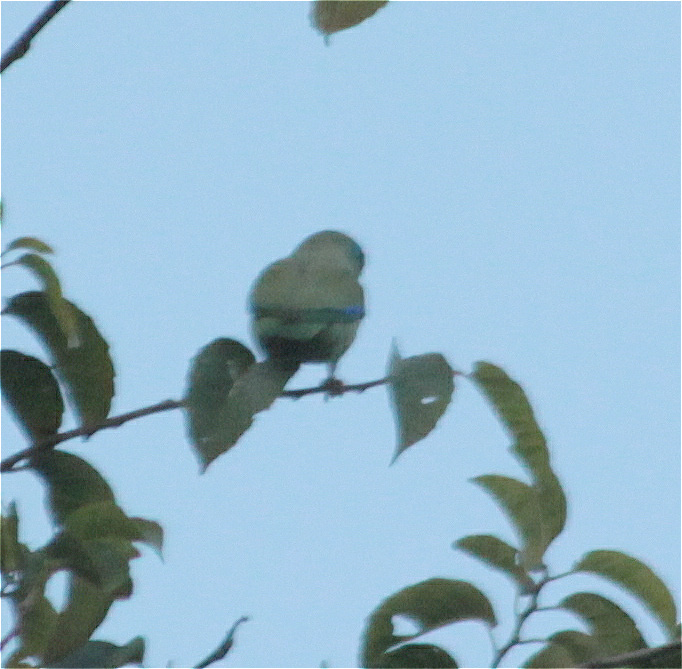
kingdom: Animalia
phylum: Chordata
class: Aves
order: Psittaciformes
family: Psittacidae
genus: Forpus
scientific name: Forpus conspicillatus
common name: Spectacled parrotlet
